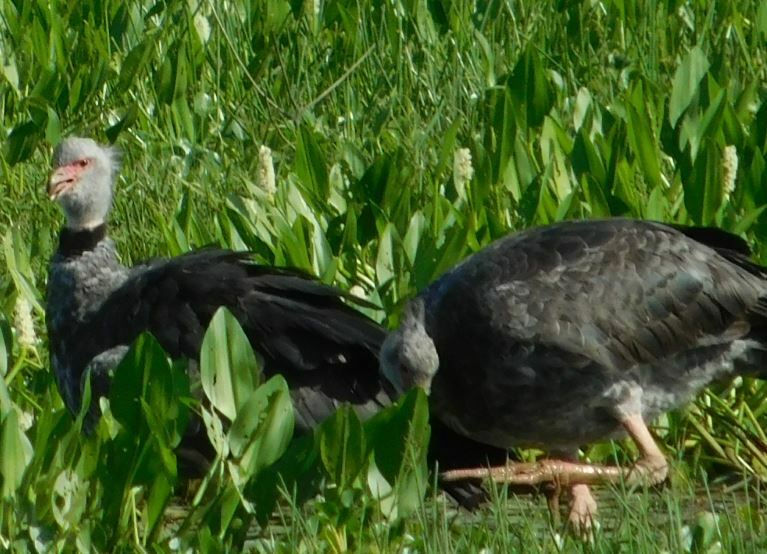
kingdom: Animalia
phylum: Chordata
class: Aves
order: Anseriformes
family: Anhimidae
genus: Chauna
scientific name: Chauna torquata
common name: Southern screamer
